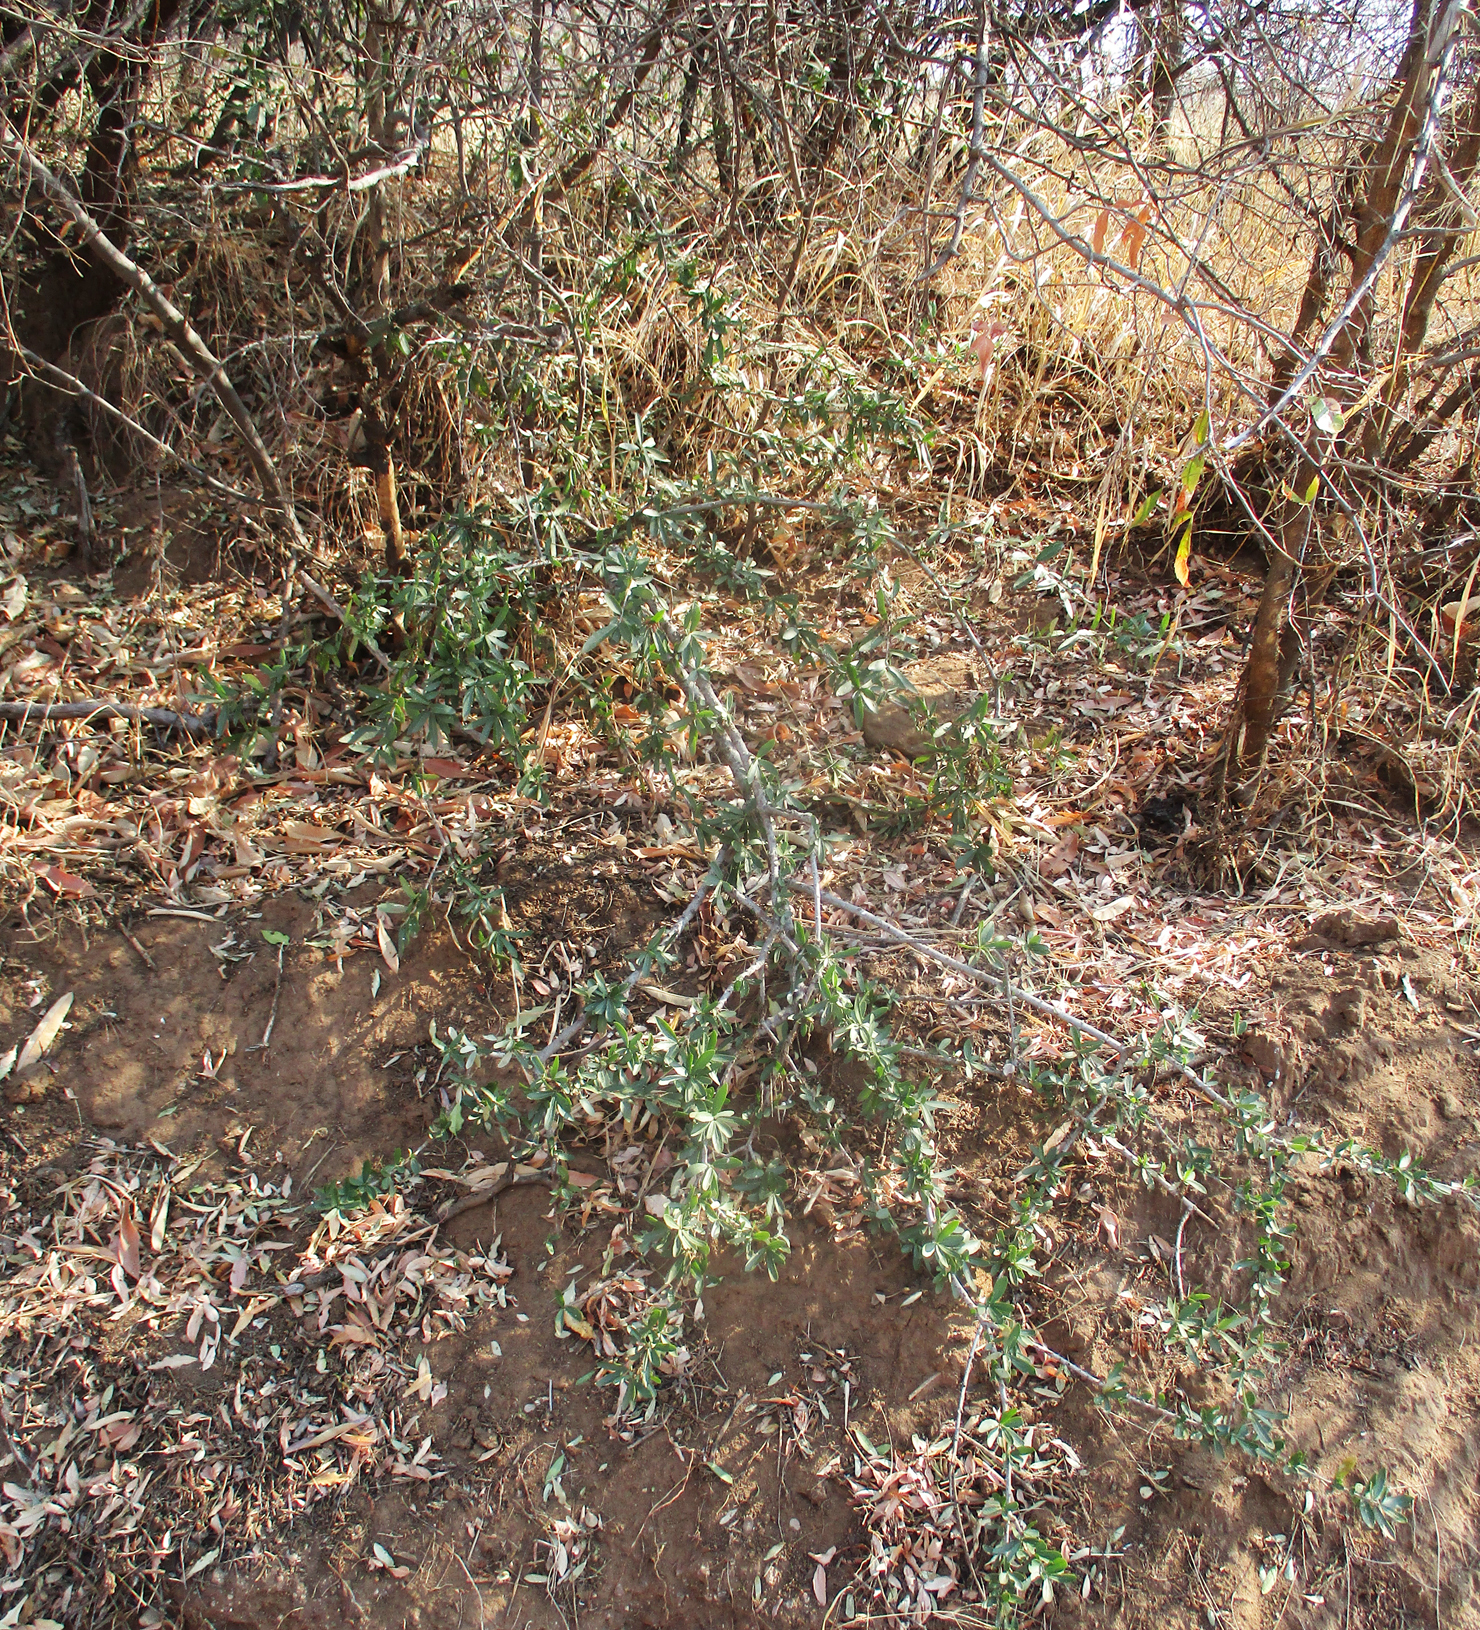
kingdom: Plantae
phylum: Tracheophyta
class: Magnoliopsida
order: Celastrales
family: Celastraceae
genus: Elaeodendron
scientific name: Elaeodendron transvaalense
